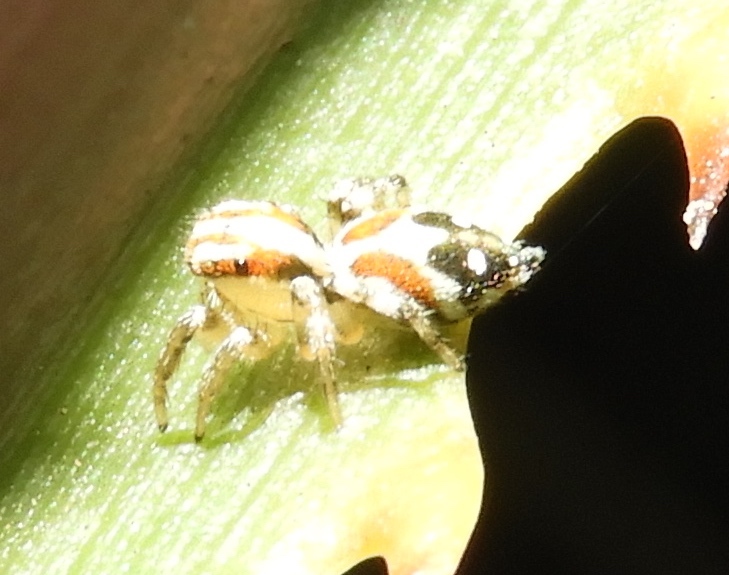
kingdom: Animalia
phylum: Arthropoda
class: Arachnida
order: Araneae
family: Salticidae
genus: Nycerella
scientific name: Nycerella delecta
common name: Jumping spiders
